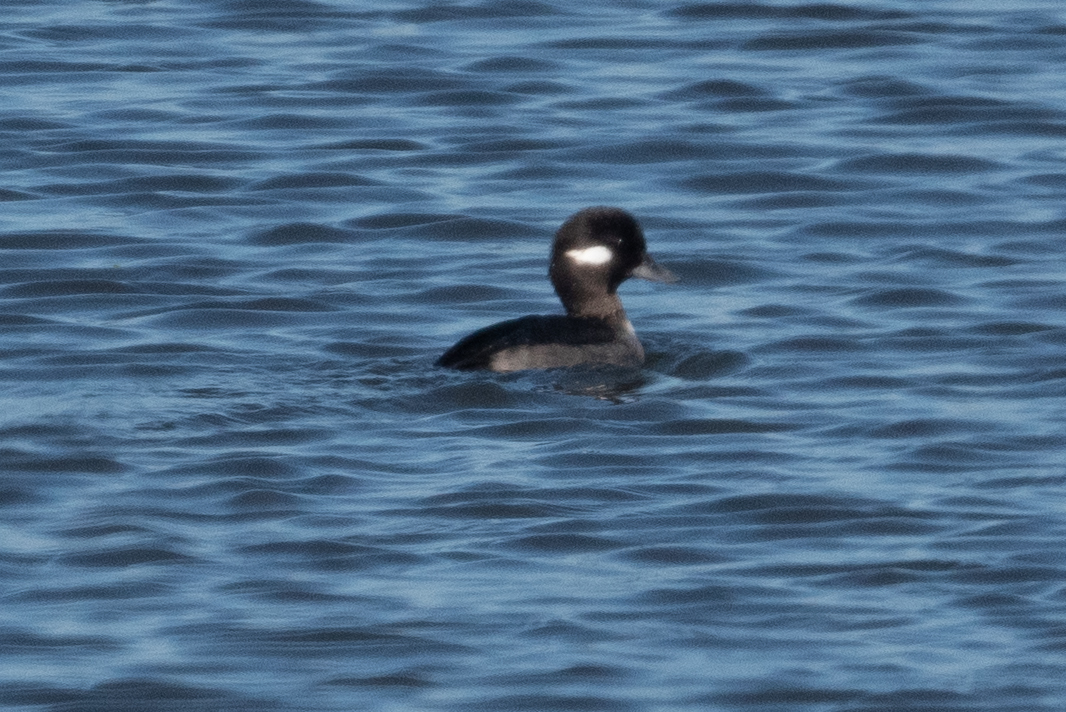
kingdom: Animalia
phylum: Chordata
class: Aves
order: Anseriformes
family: Anatidae
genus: Bucephala
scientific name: Bucephala albeola
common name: Bufflehead
